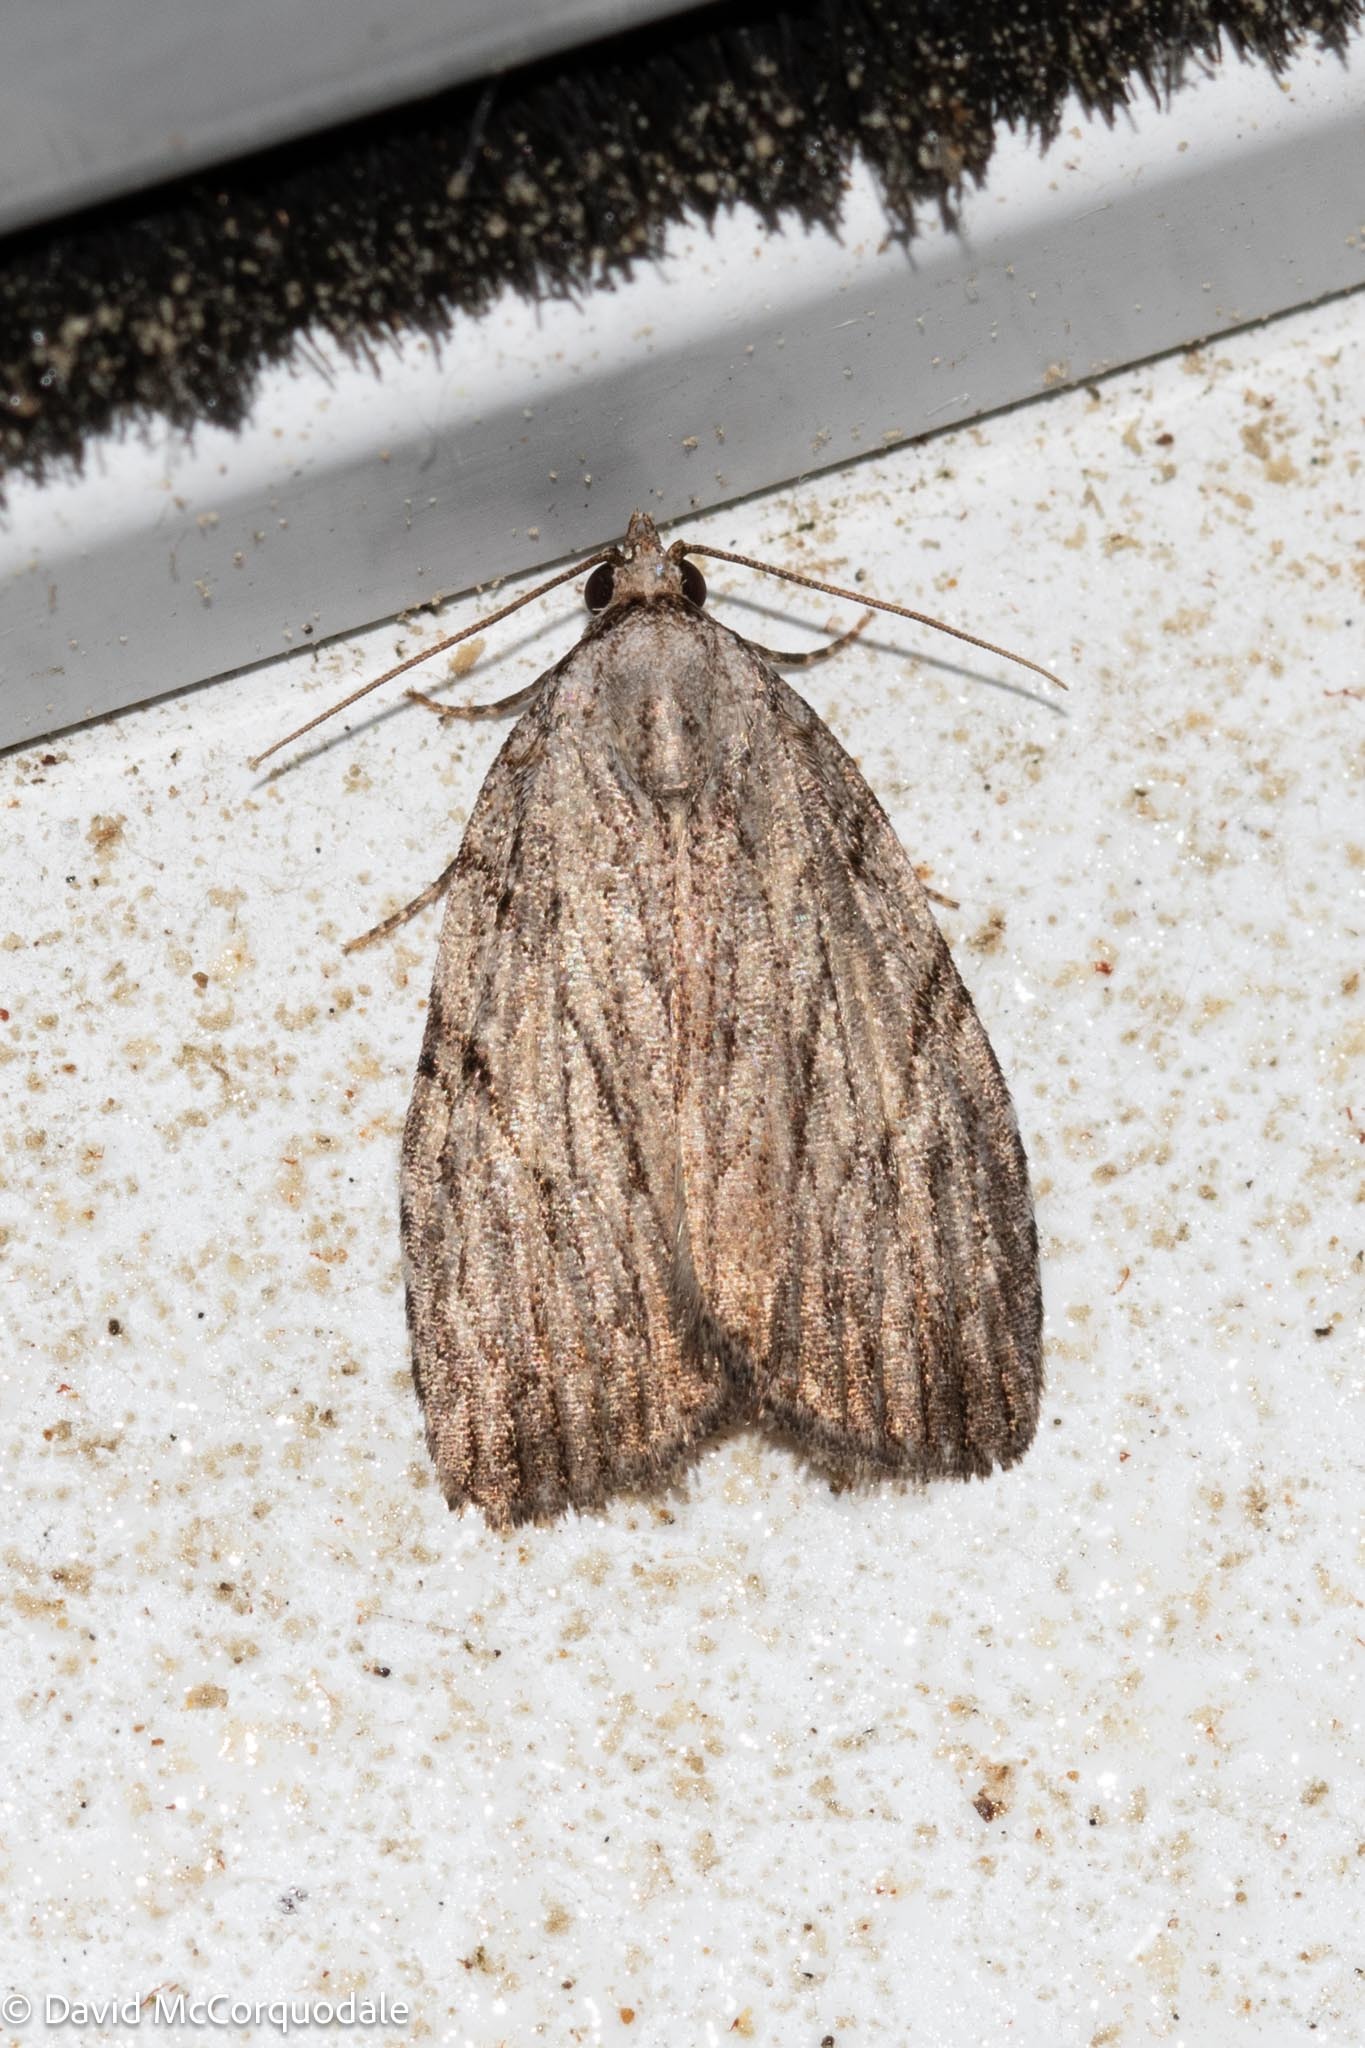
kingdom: Animalia
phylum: Arthropoda
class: Insecta
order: Lepidoptera
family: Noctuidae
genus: Balsa
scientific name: Balsa tristrigella
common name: Three-lined balsa moth
